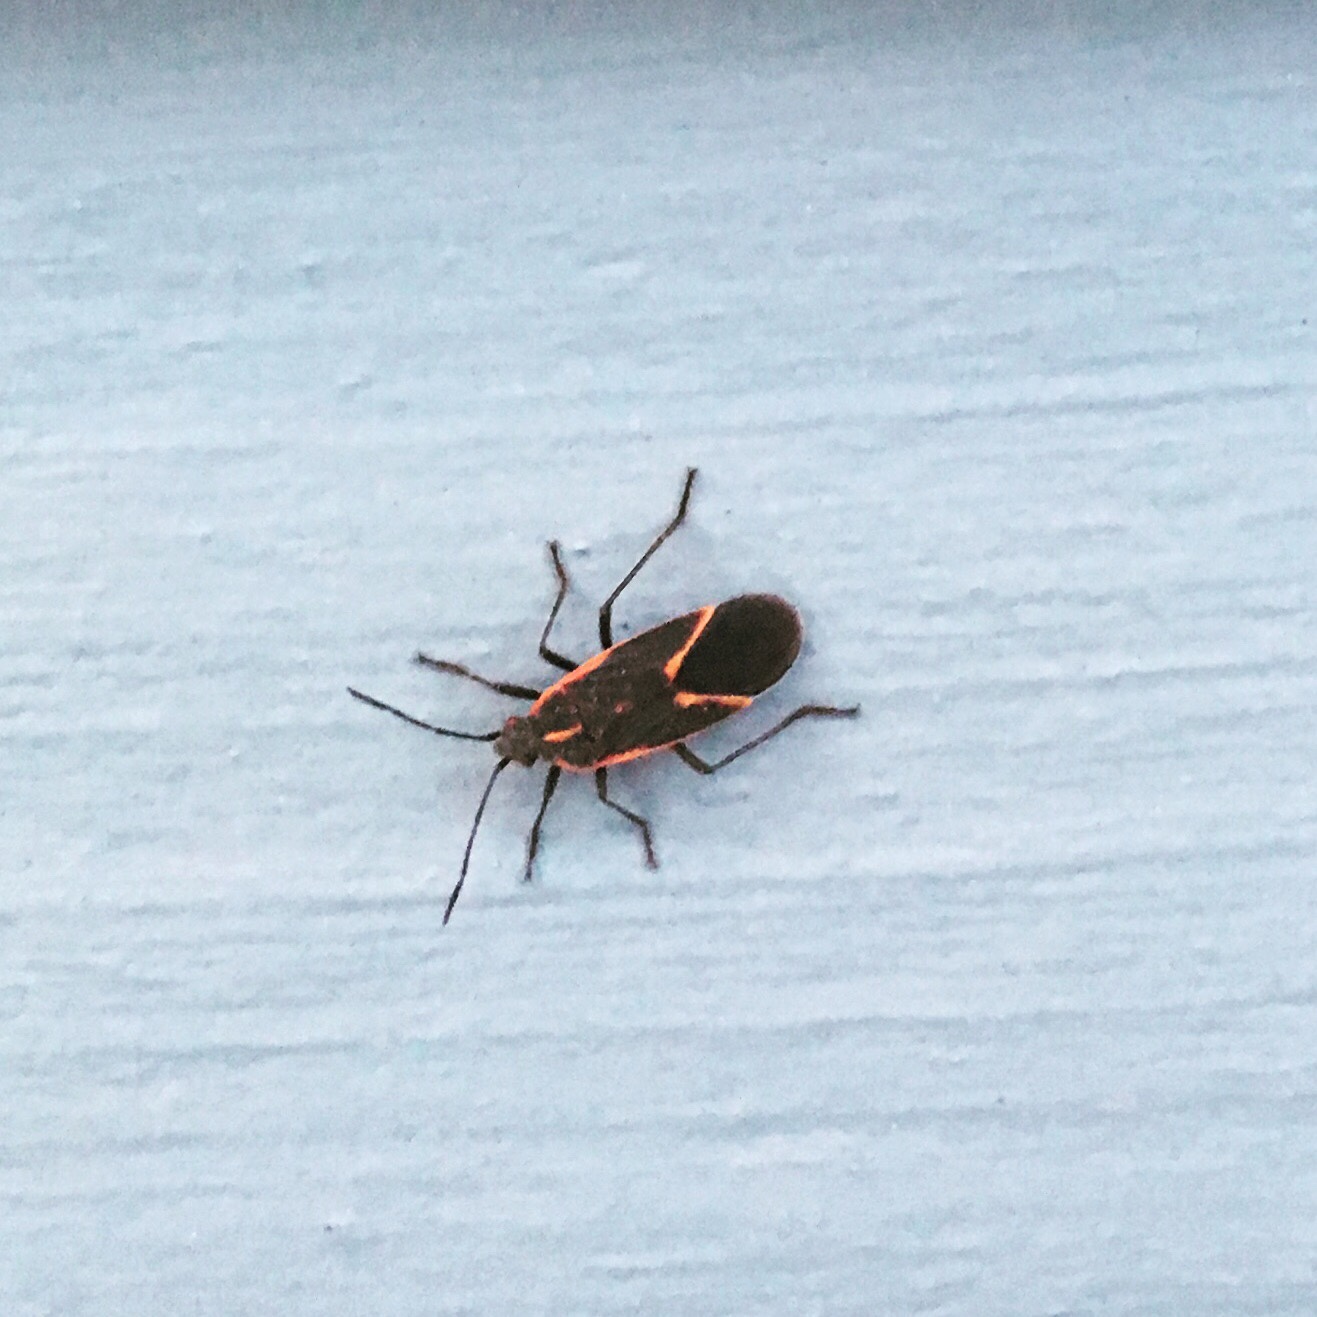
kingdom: Animalia
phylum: Arthropoda
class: Insecta
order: Hemiptera
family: Rhopalidae
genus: Boisea
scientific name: Boisea trivittata
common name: Boxelder bug
